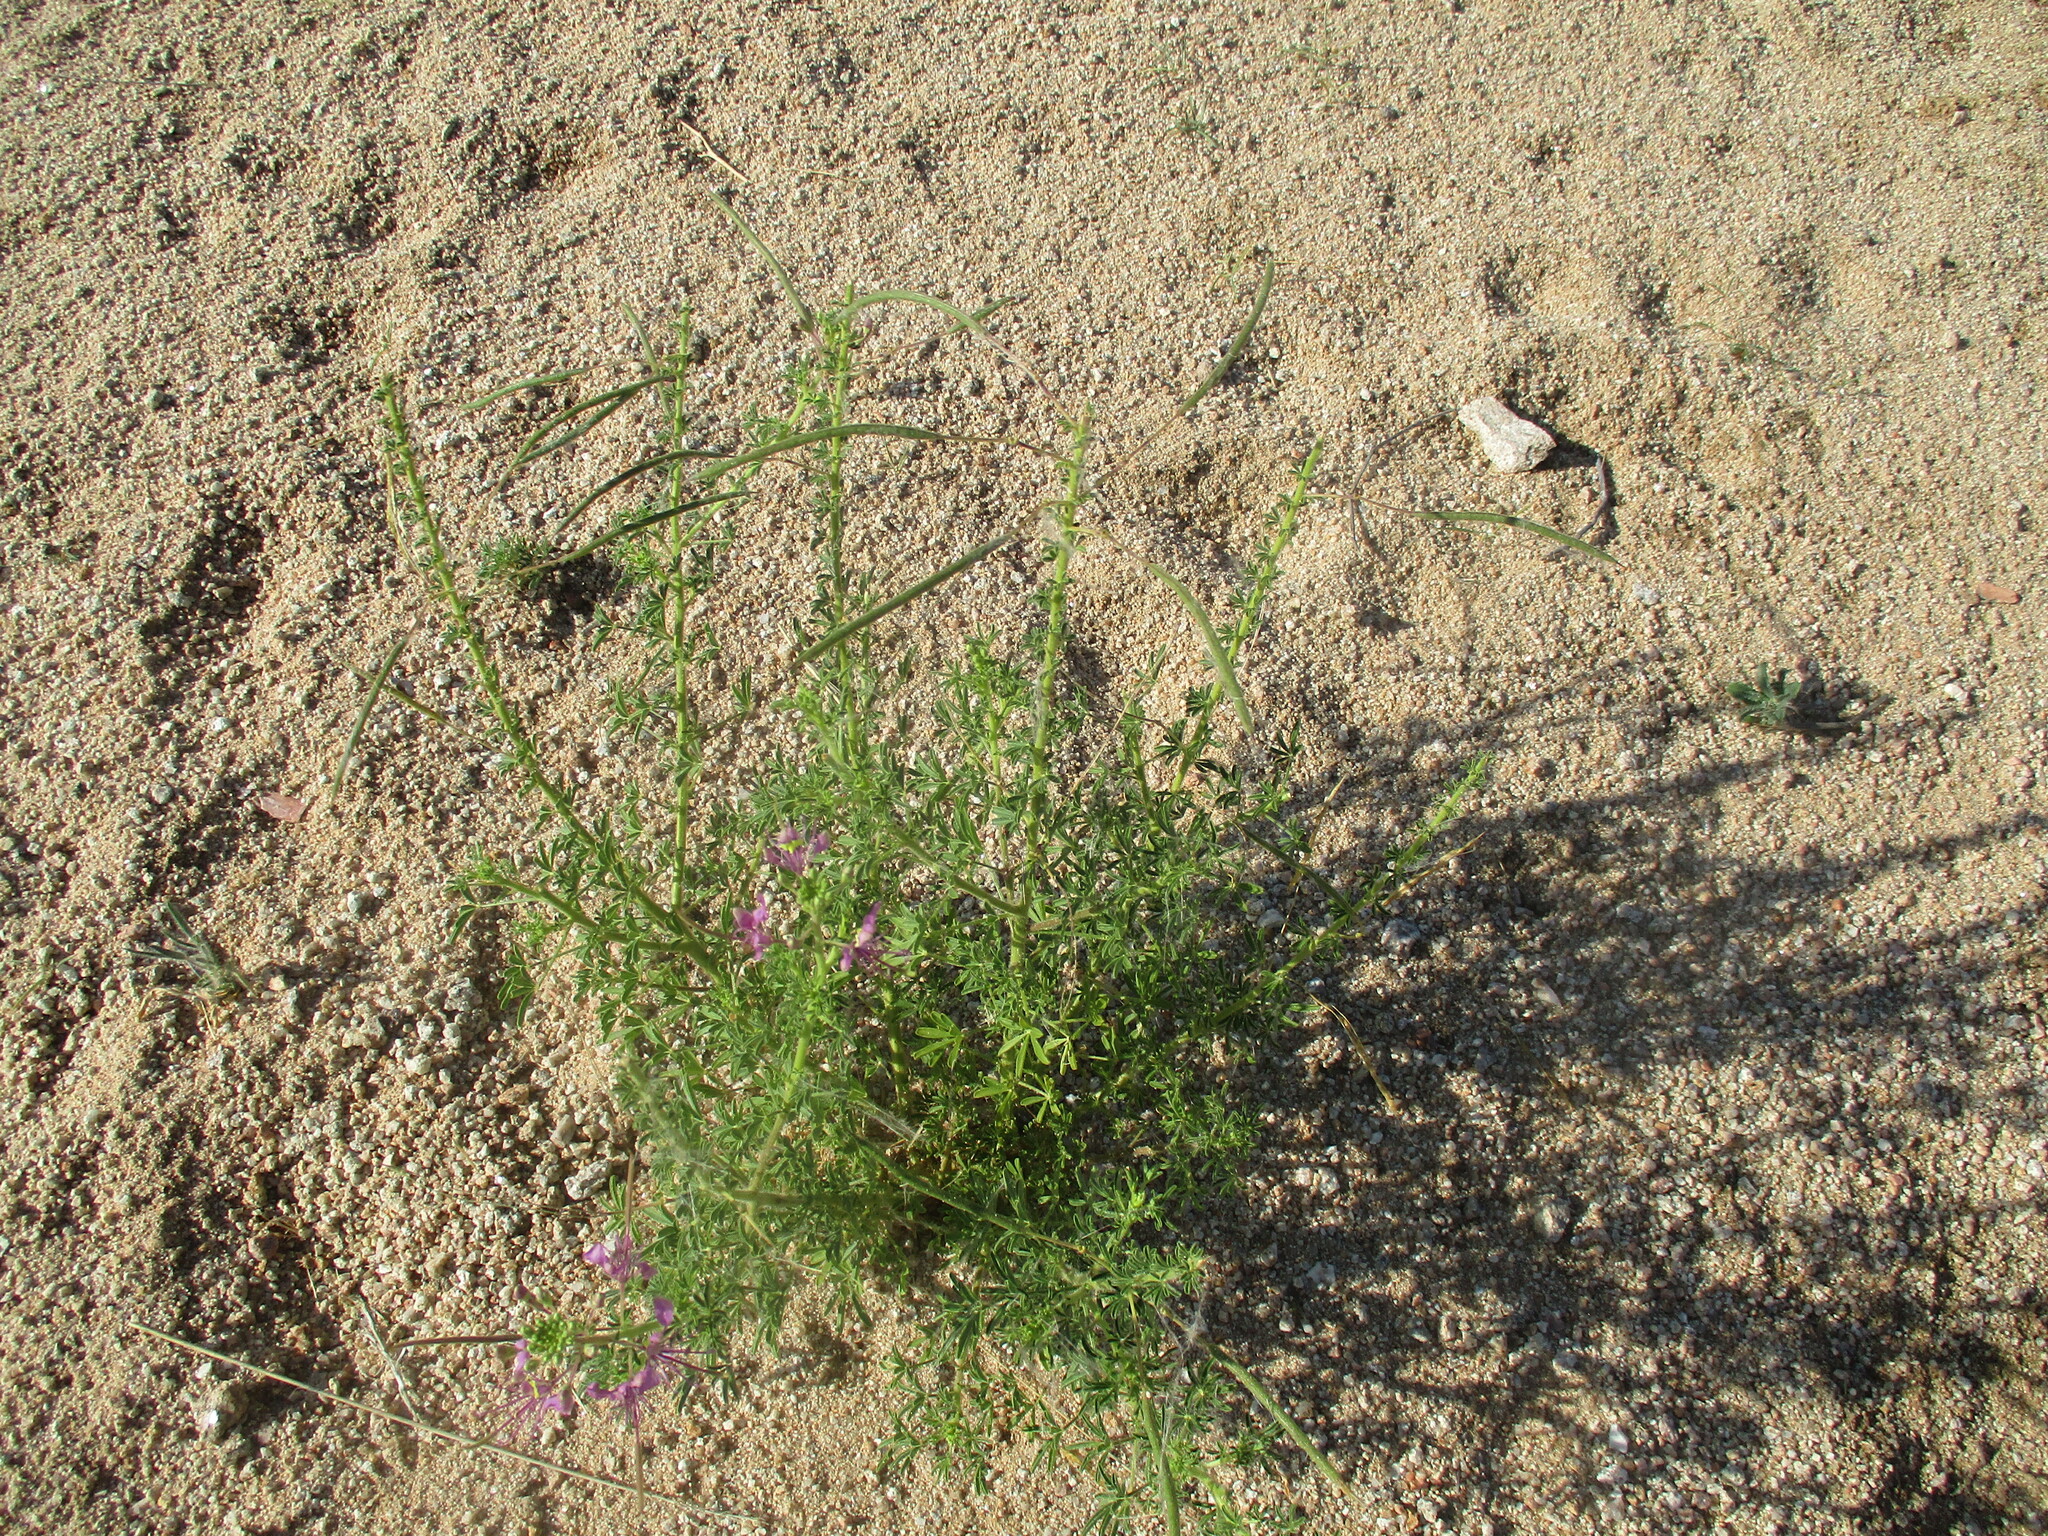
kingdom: Plantae
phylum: Tracheophyta
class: Magnoliopsida
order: Brassicales
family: Cleomaceae
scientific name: Cleomaceae
